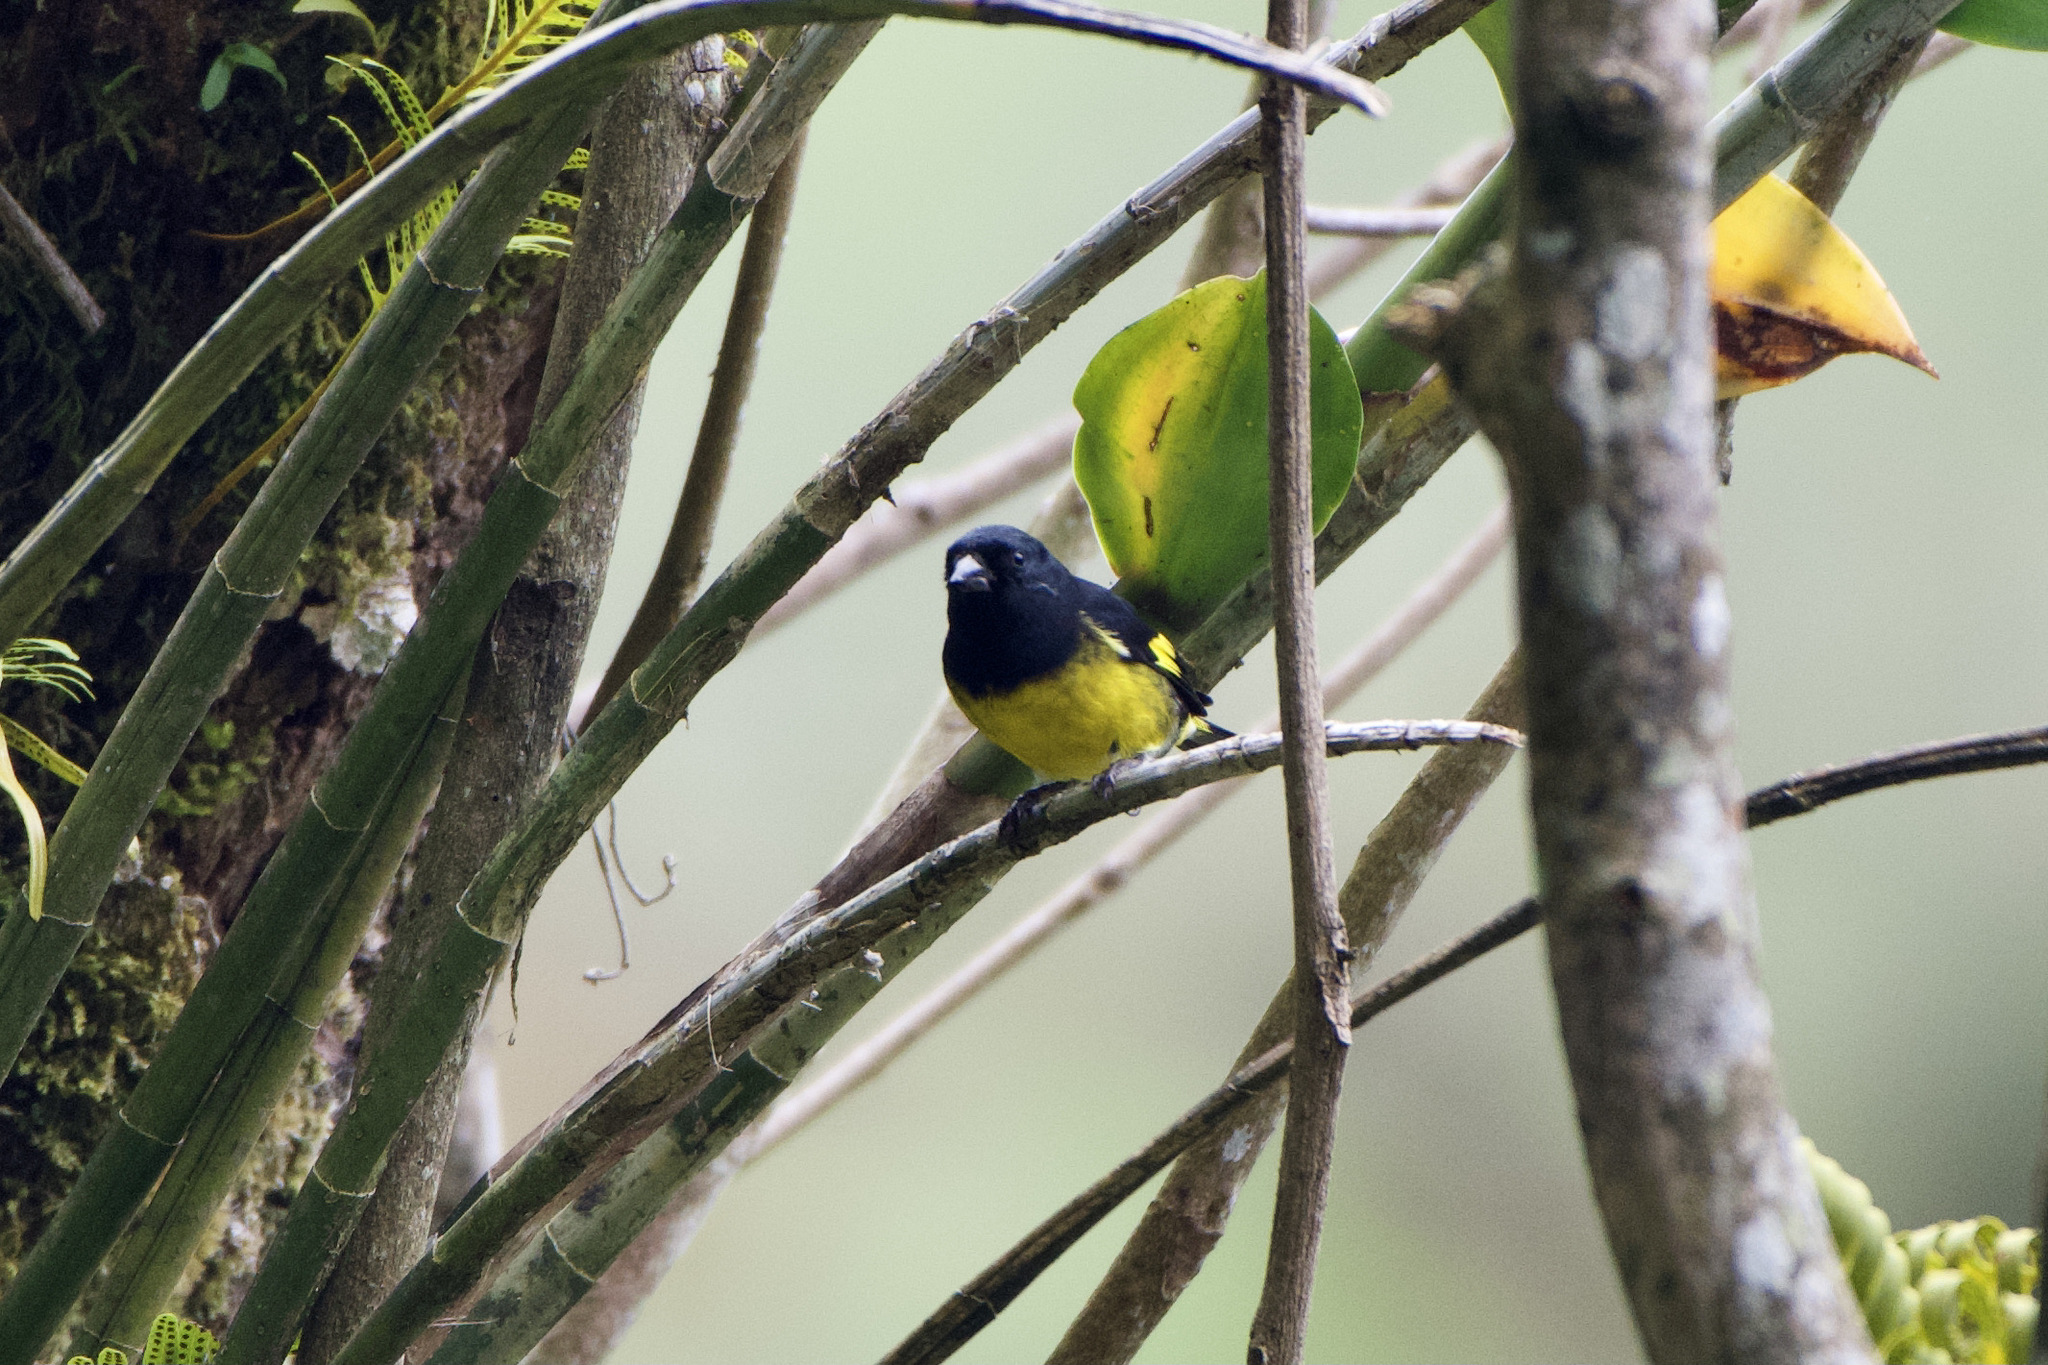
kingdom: Animalia
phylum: Chordata
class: Aves
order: Passeriformes
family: Fringillidae
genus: Spinus
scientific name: Spinus xanthogastrus
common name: Yellow-bellied siskin
